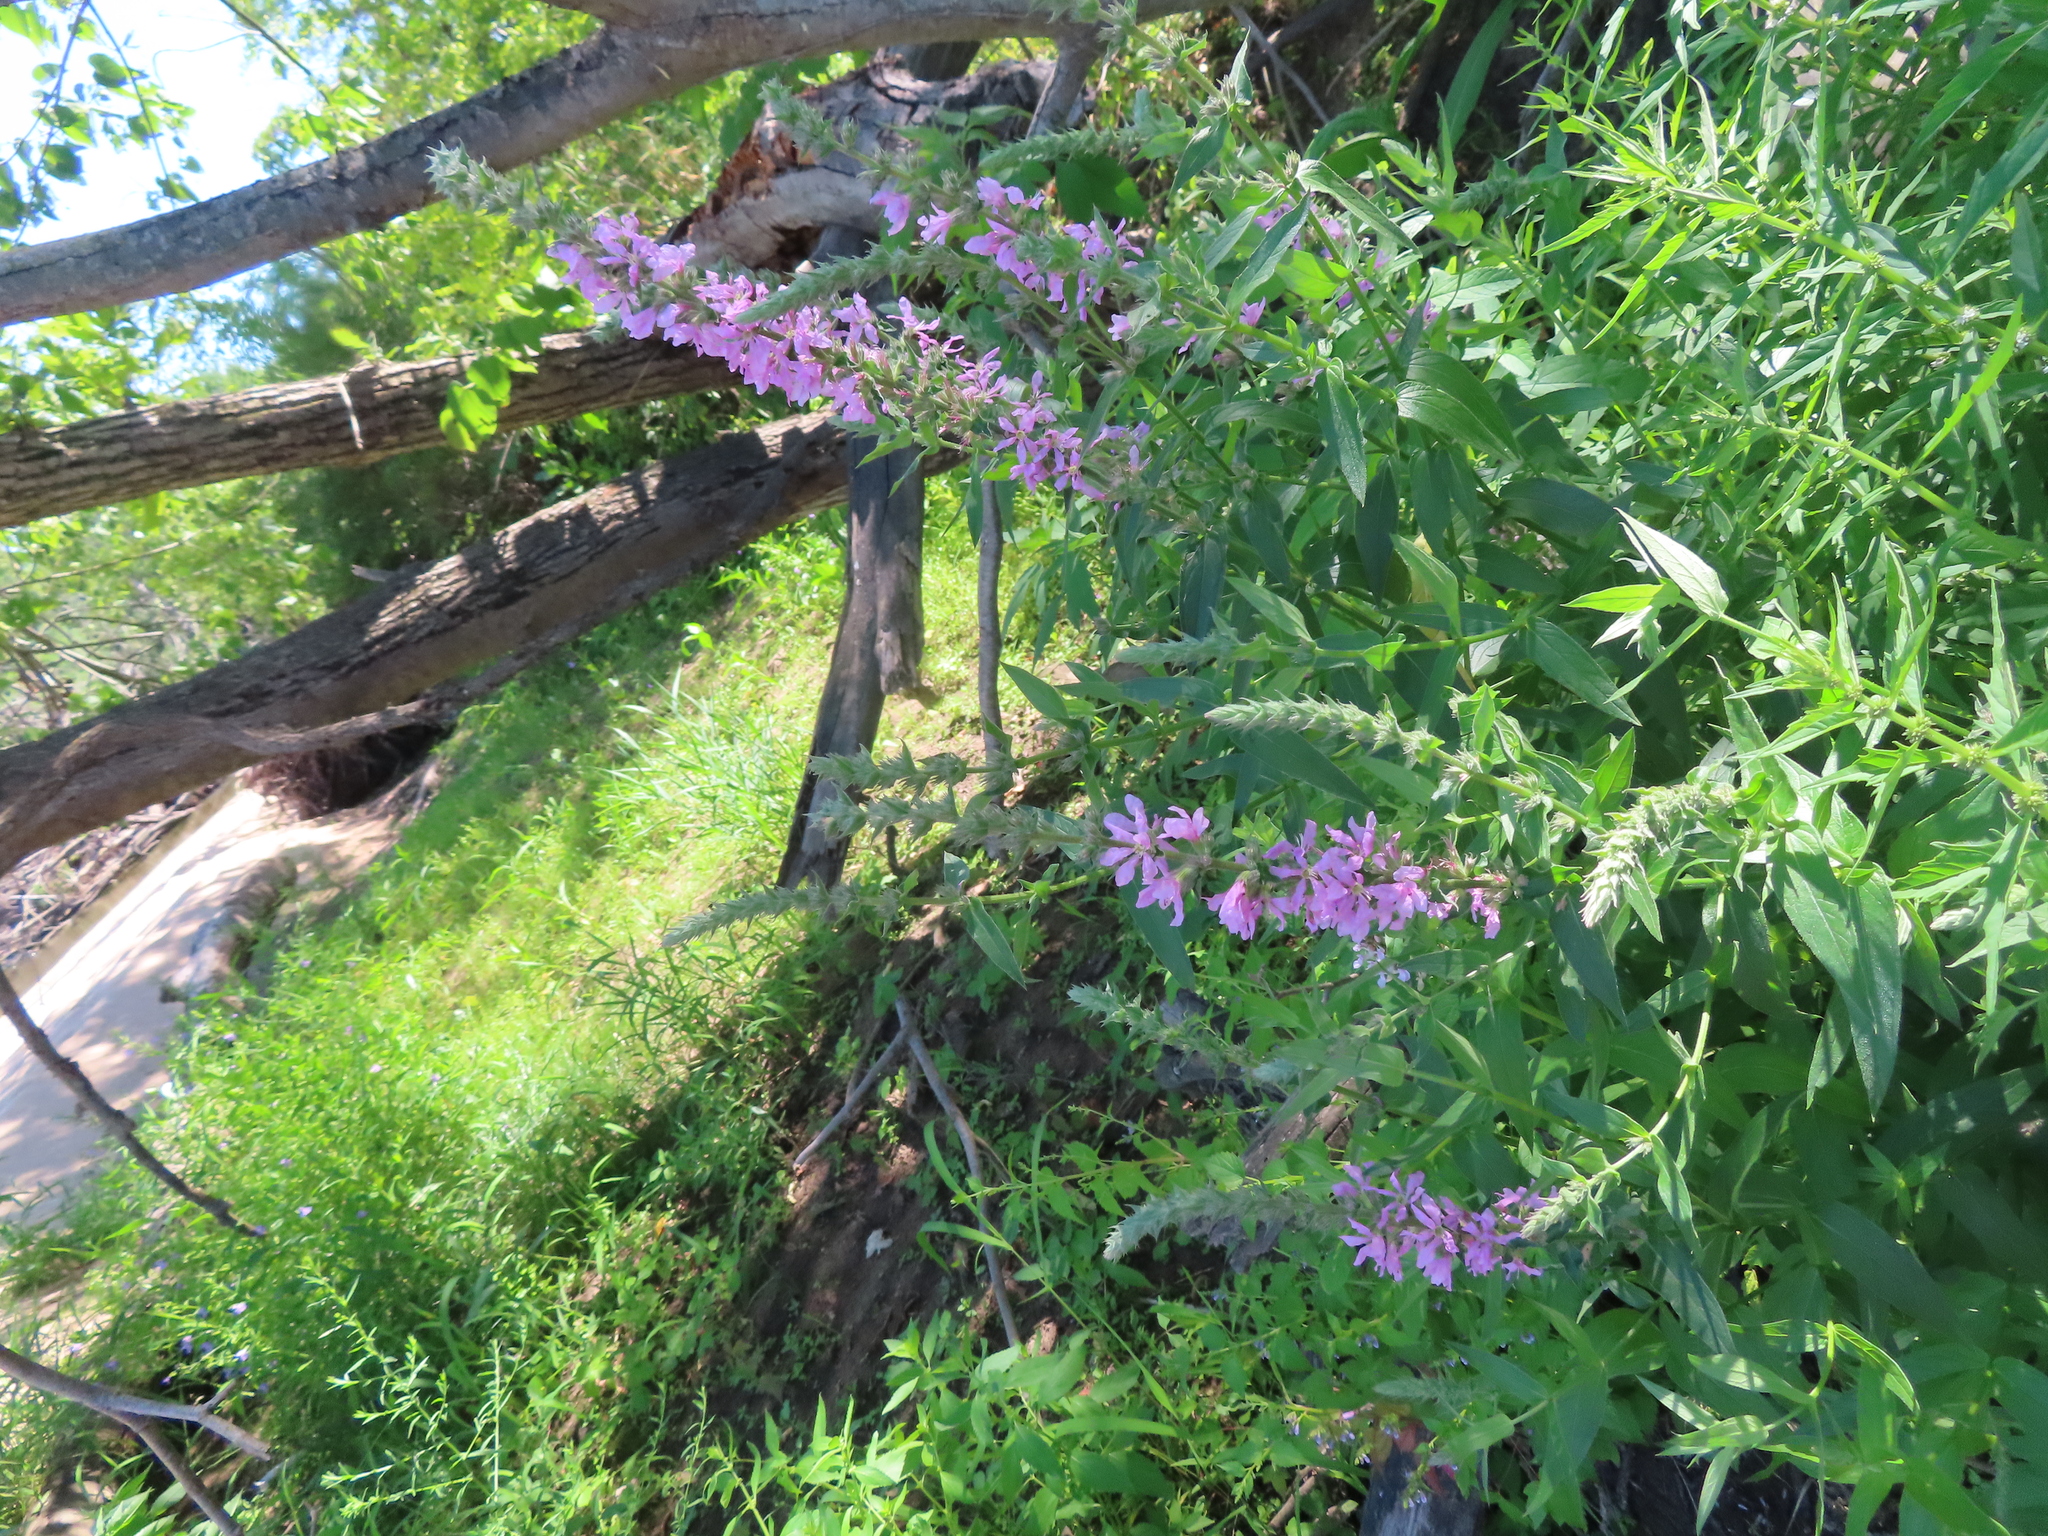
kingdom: Plantae
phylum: Tracheophyta
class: Magnoliopsida
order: Myrtales
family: Lythraceae
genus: Lythrum
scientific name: Lythrum salicaria
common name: Purple loosestrife
